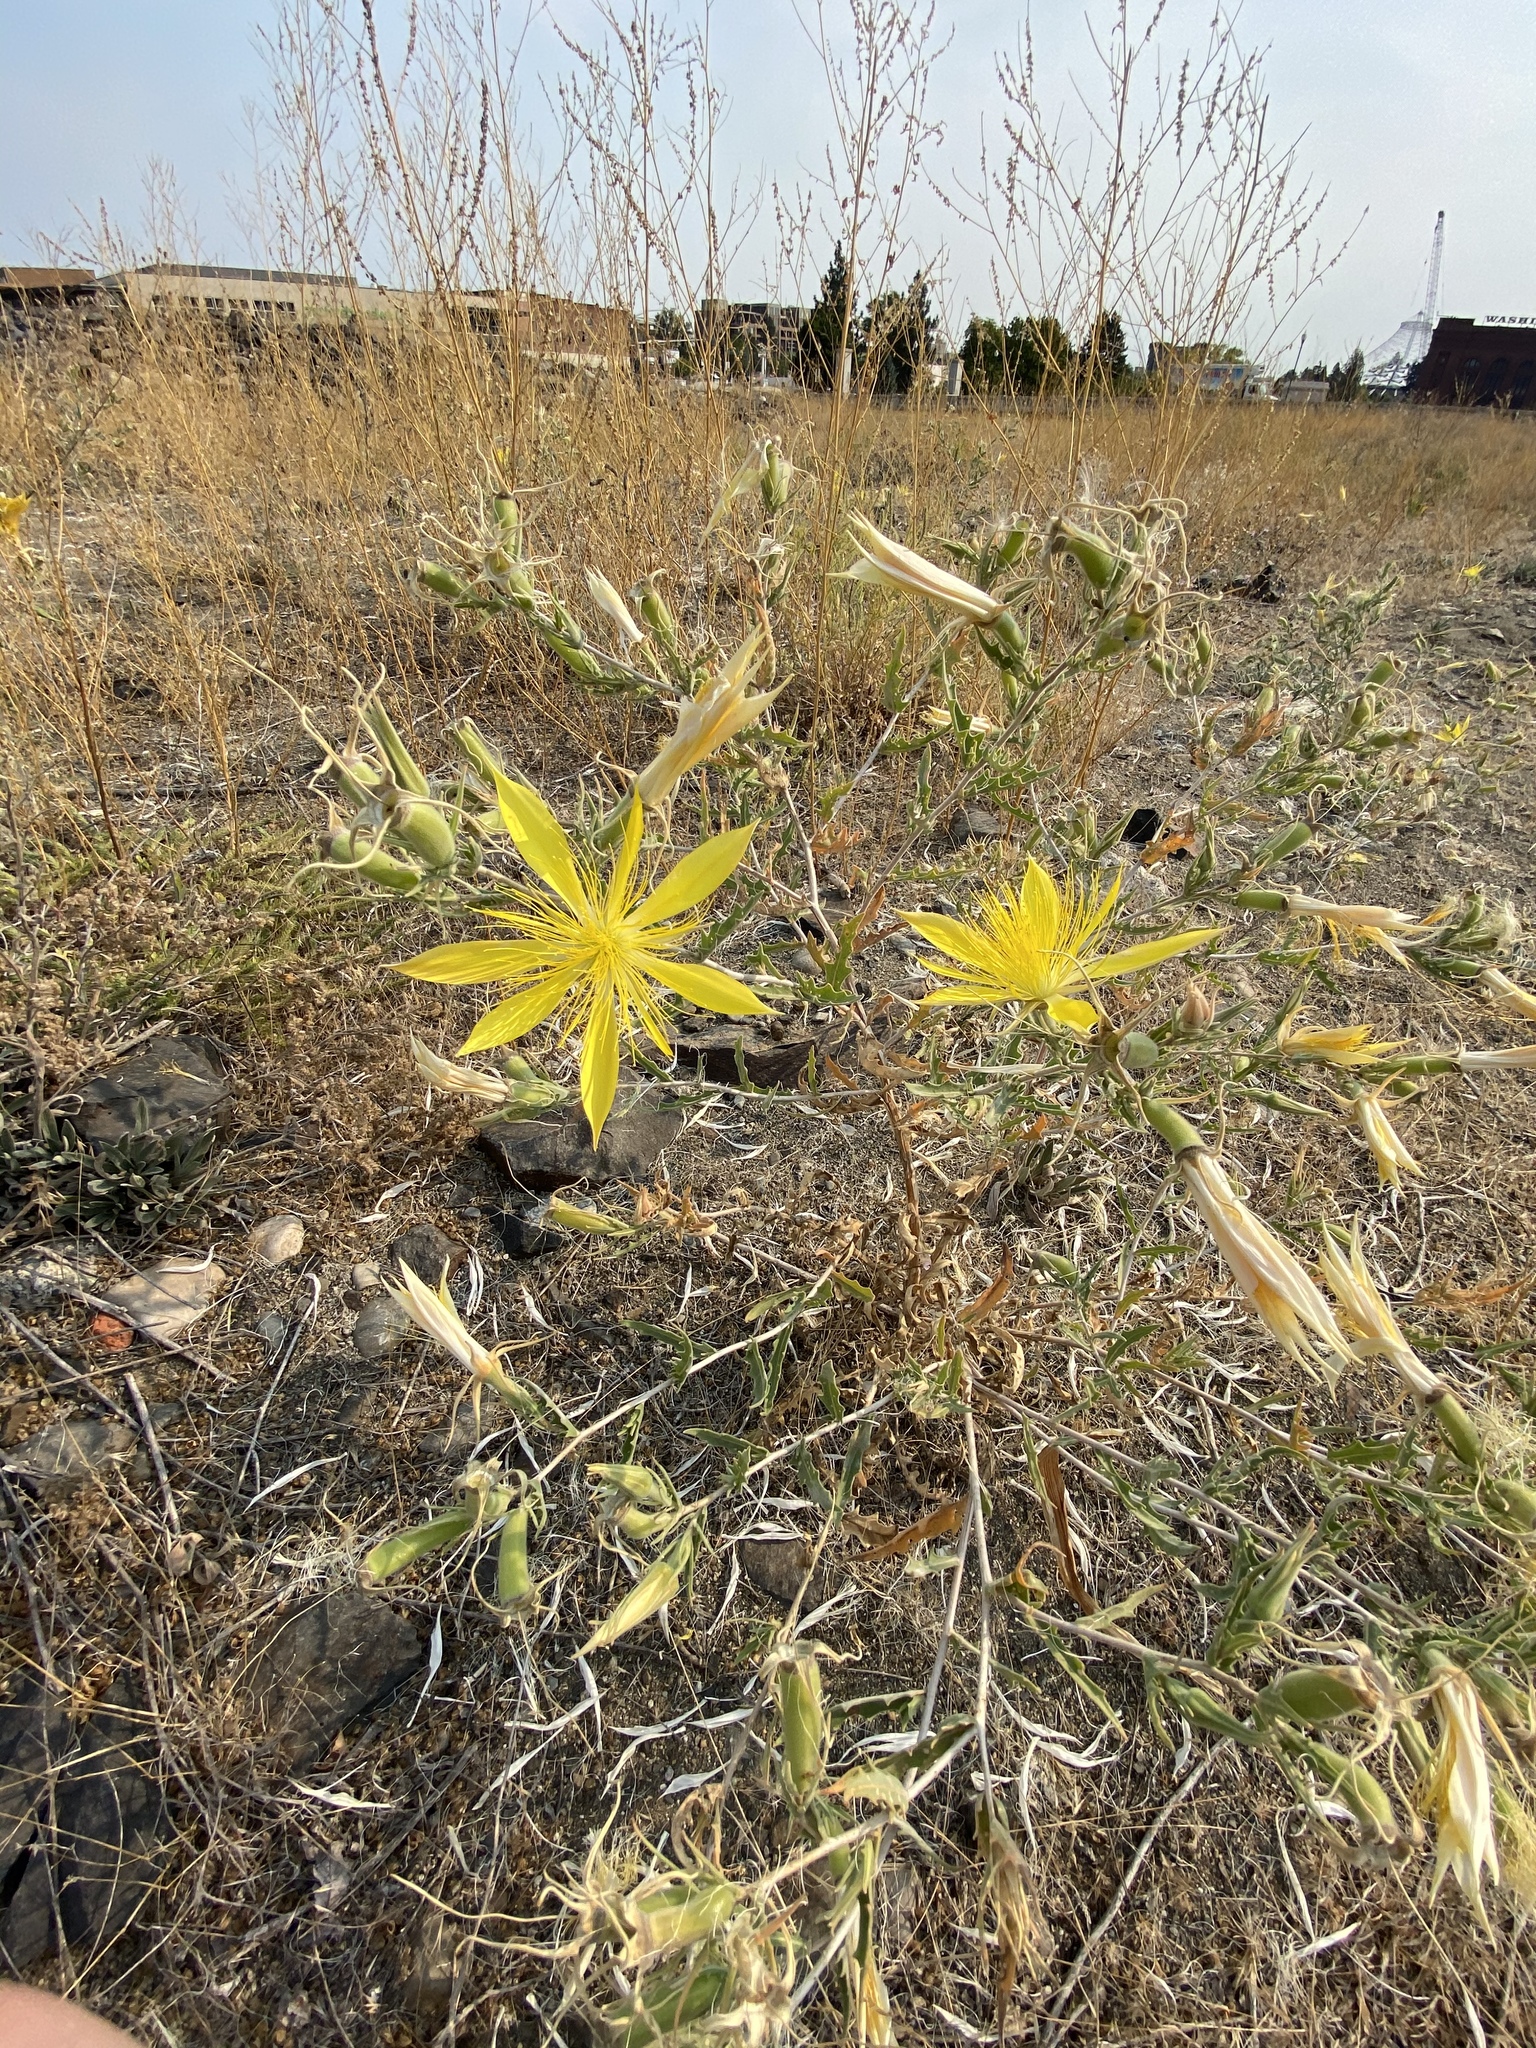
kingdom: Plantae
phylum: Tracheophyta
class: Magnoliopsida
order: Cornales
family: Loasaceae
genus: Mentzelia
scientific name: Mentzelia laevicaulis
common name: Smooth-stem blazingstar
